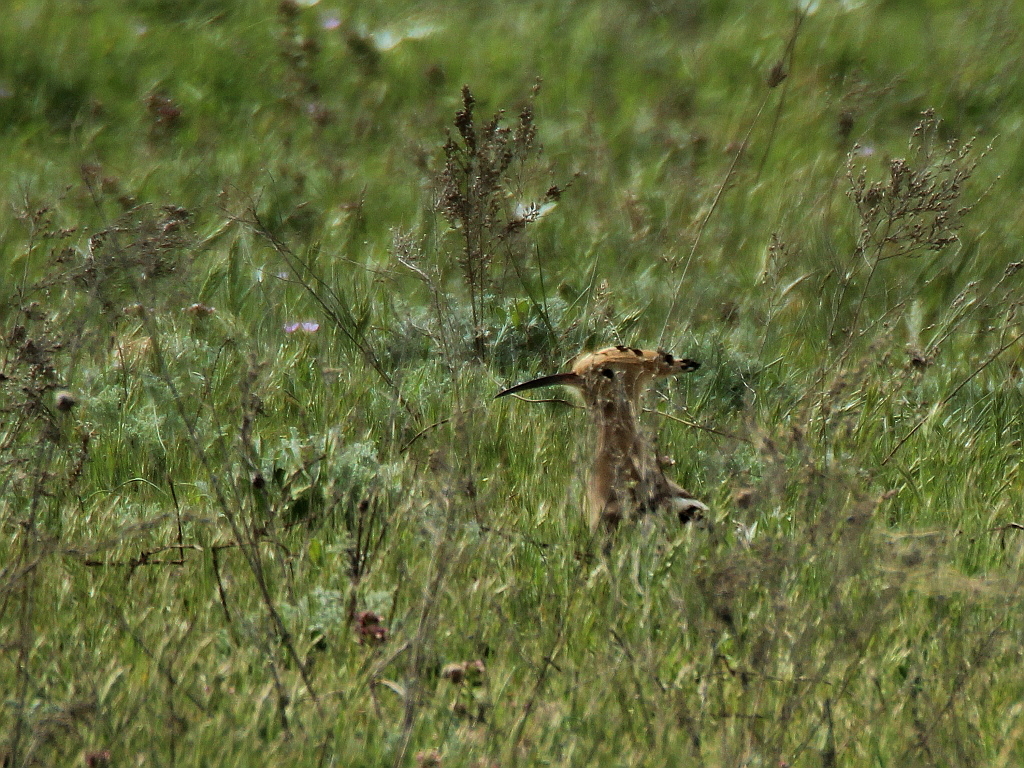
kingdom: Animalia
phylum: Chordata
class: Aves
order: Bucerotiformes
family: Upupidae
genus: Upupa
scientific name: Upupa epops
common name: Eurasian hoopoe
